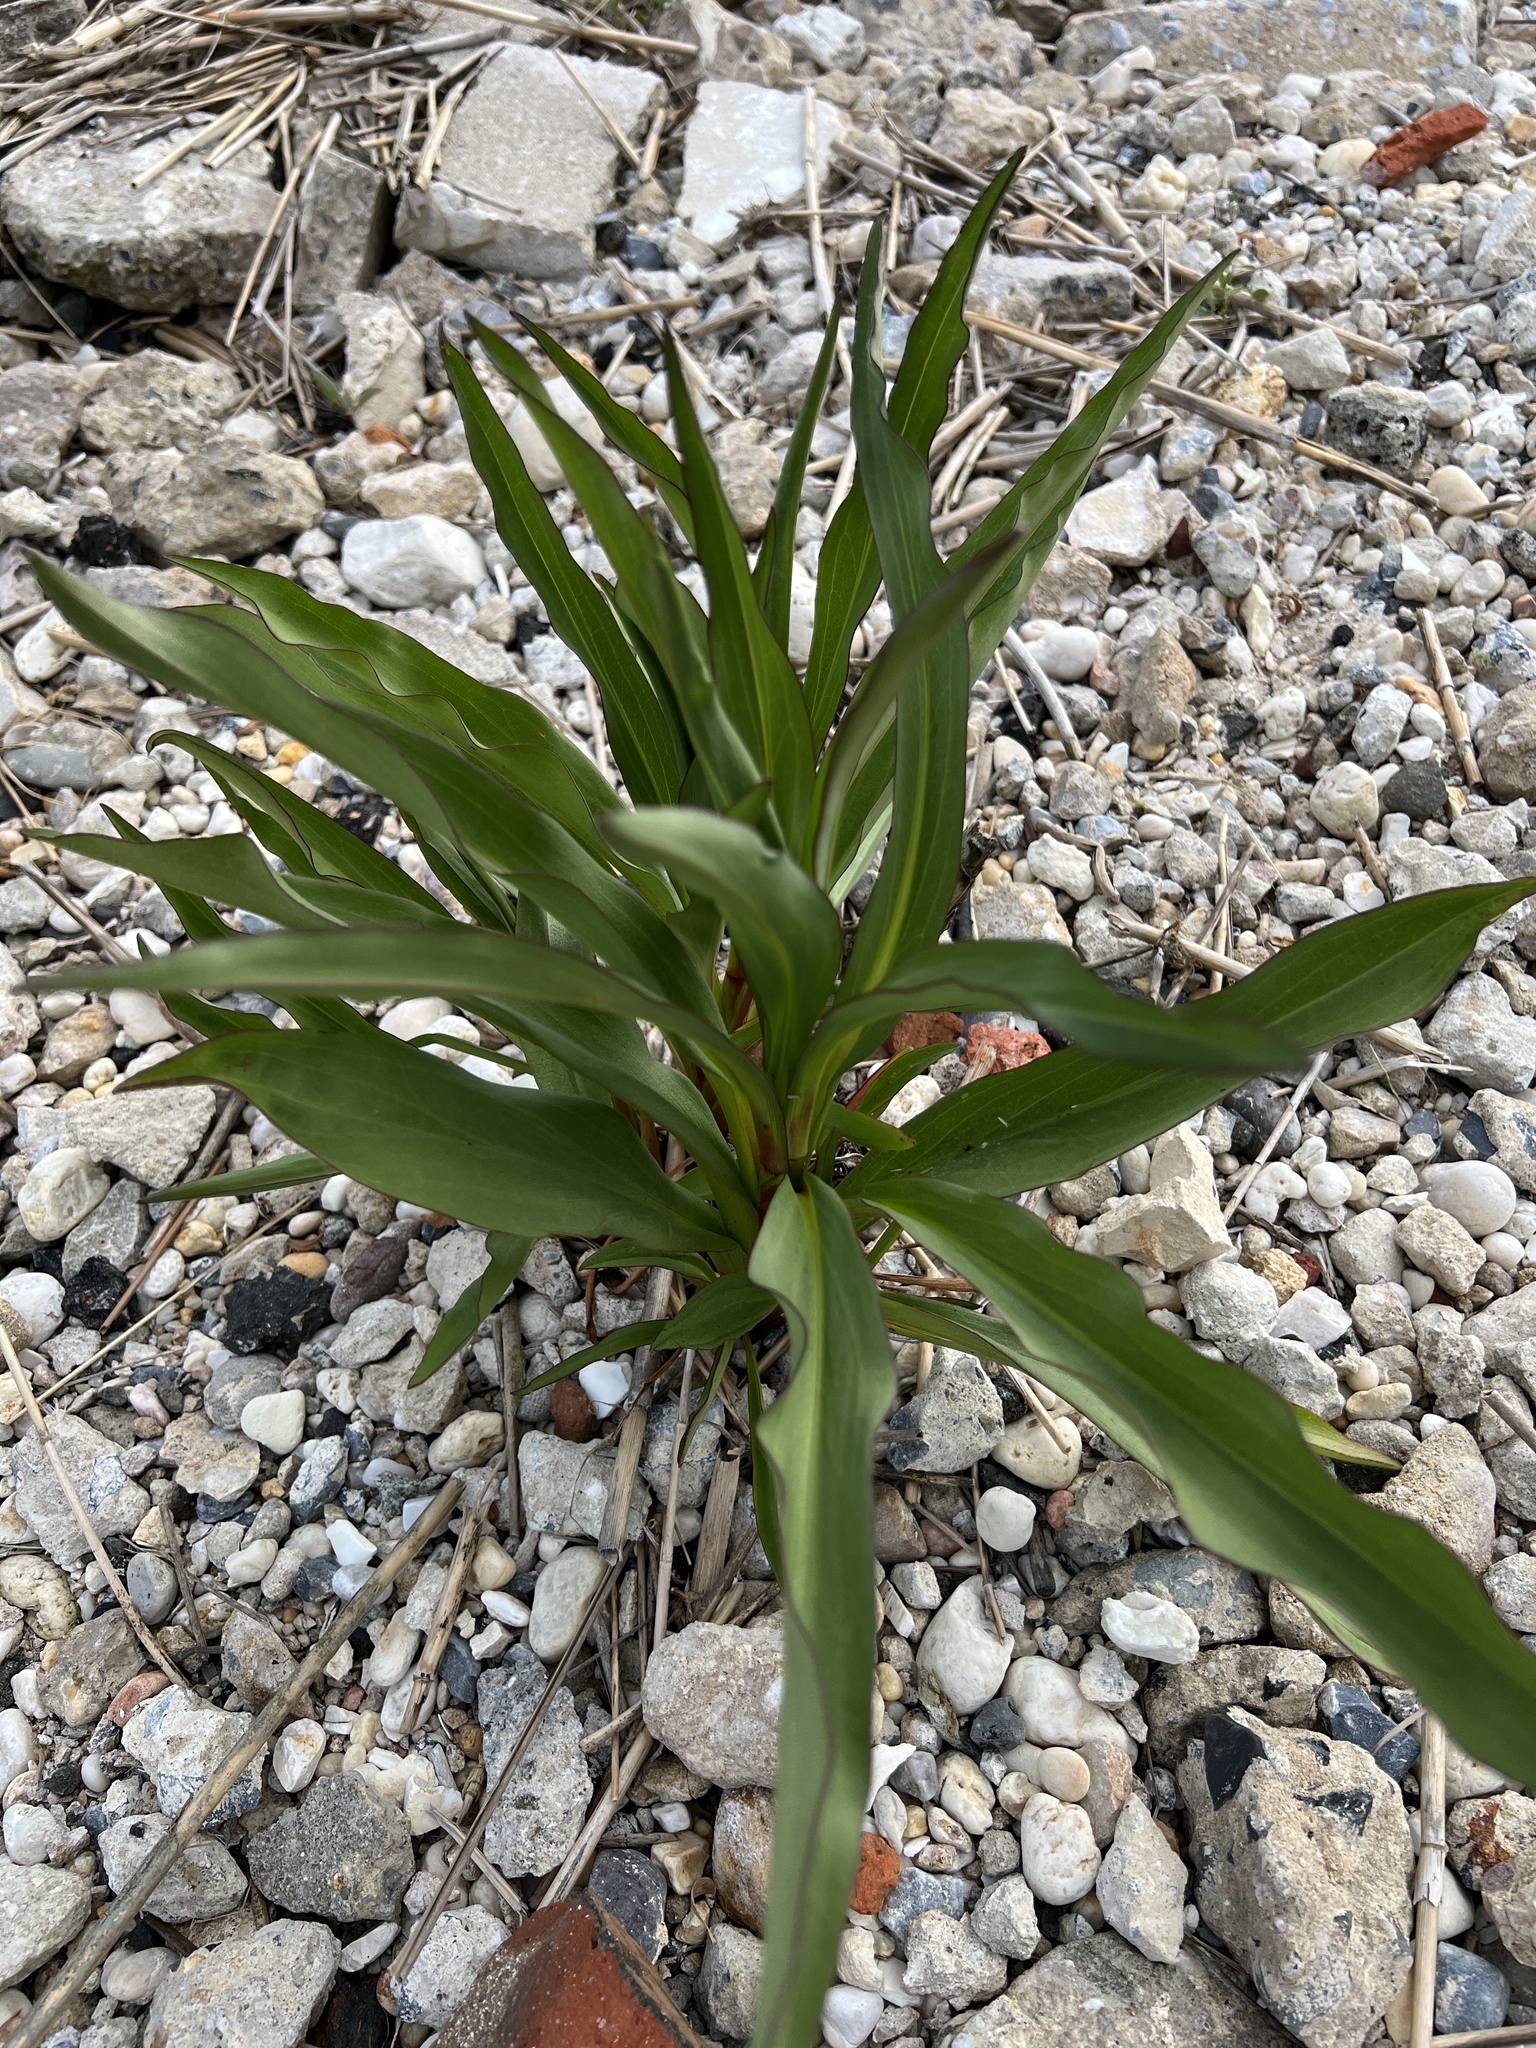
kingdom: Plantae
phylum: Tracheophyta
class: Magnoliopsida
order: Asterales
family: Asteraceae
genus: Solidago
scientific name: Solidago sempervirens
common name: Salt-marsh goldenrod
